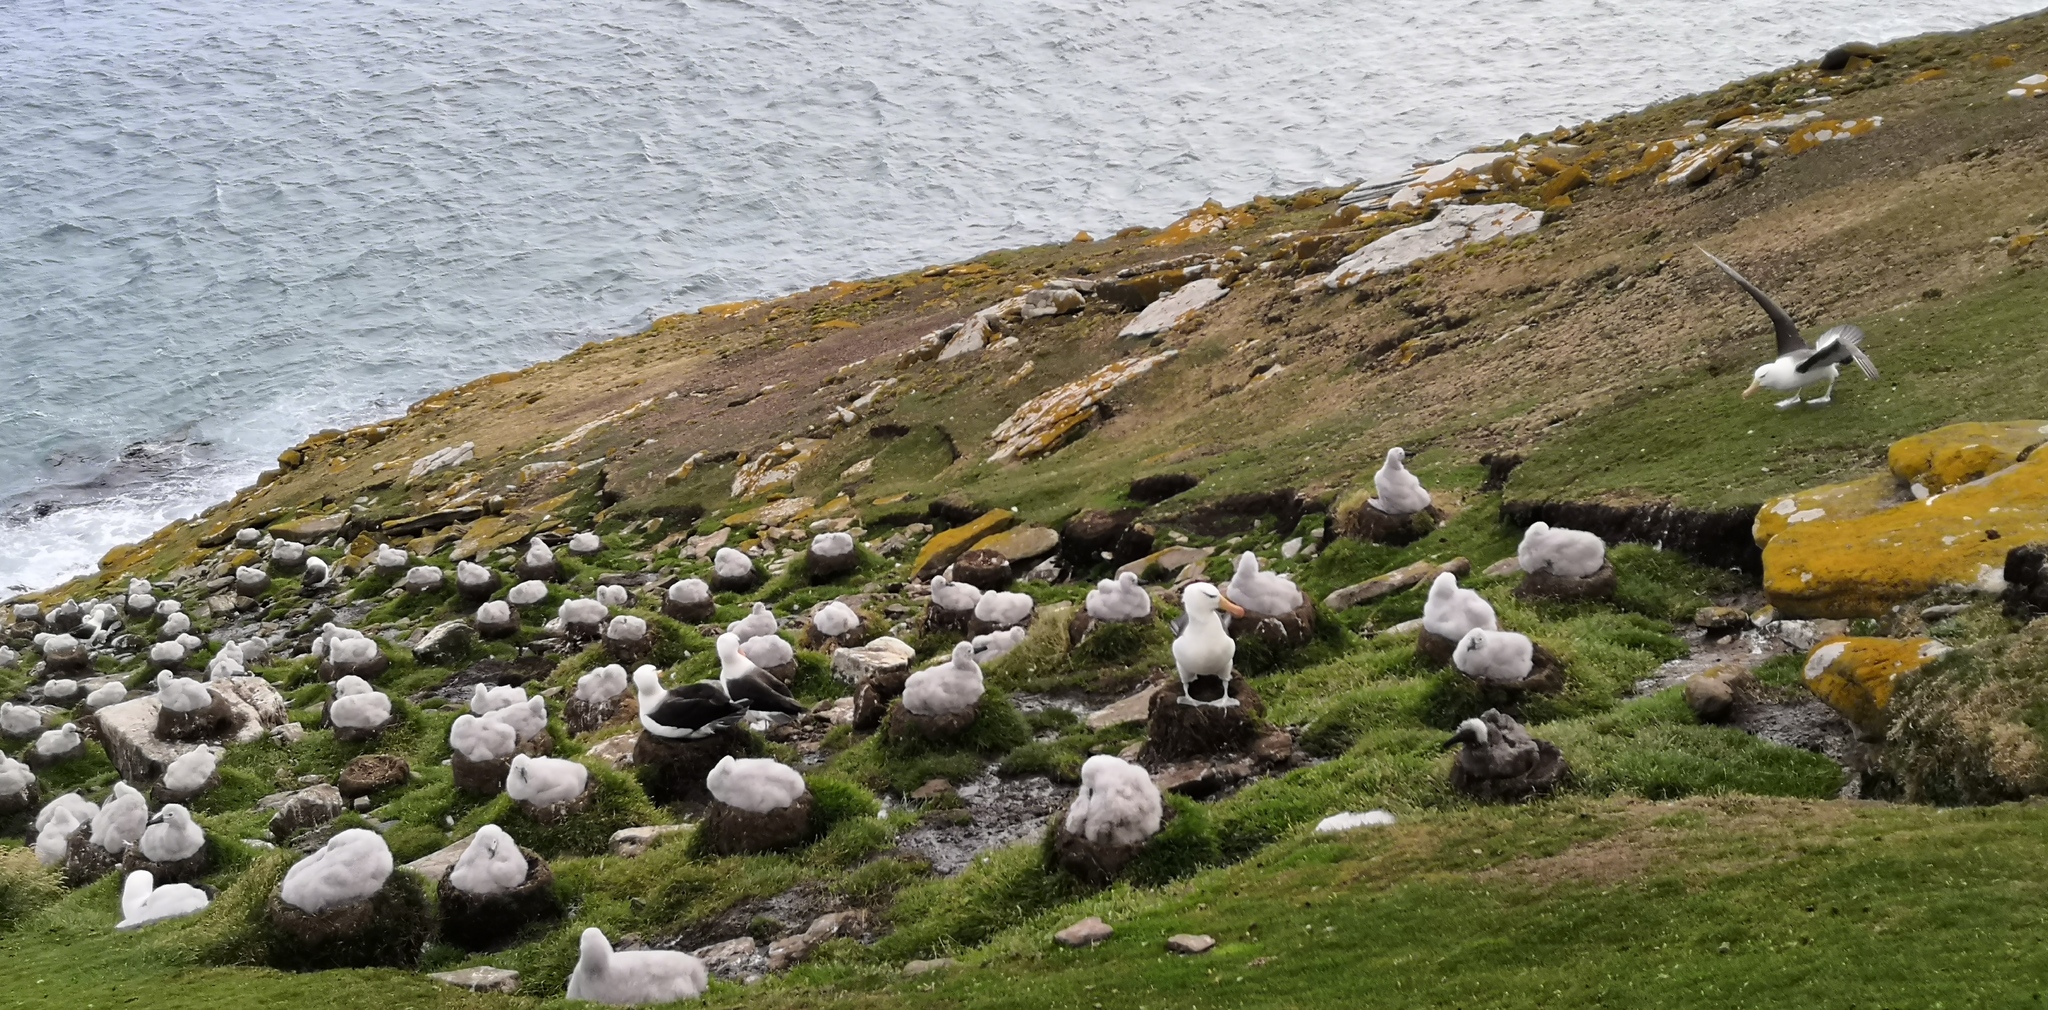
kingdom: Animalia
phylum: Chordata
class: Aves
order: Procellariiformes
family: Diomedeidae
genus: Thalassarche
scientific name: Thalassarche melanophris
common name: Black-browed albatross
